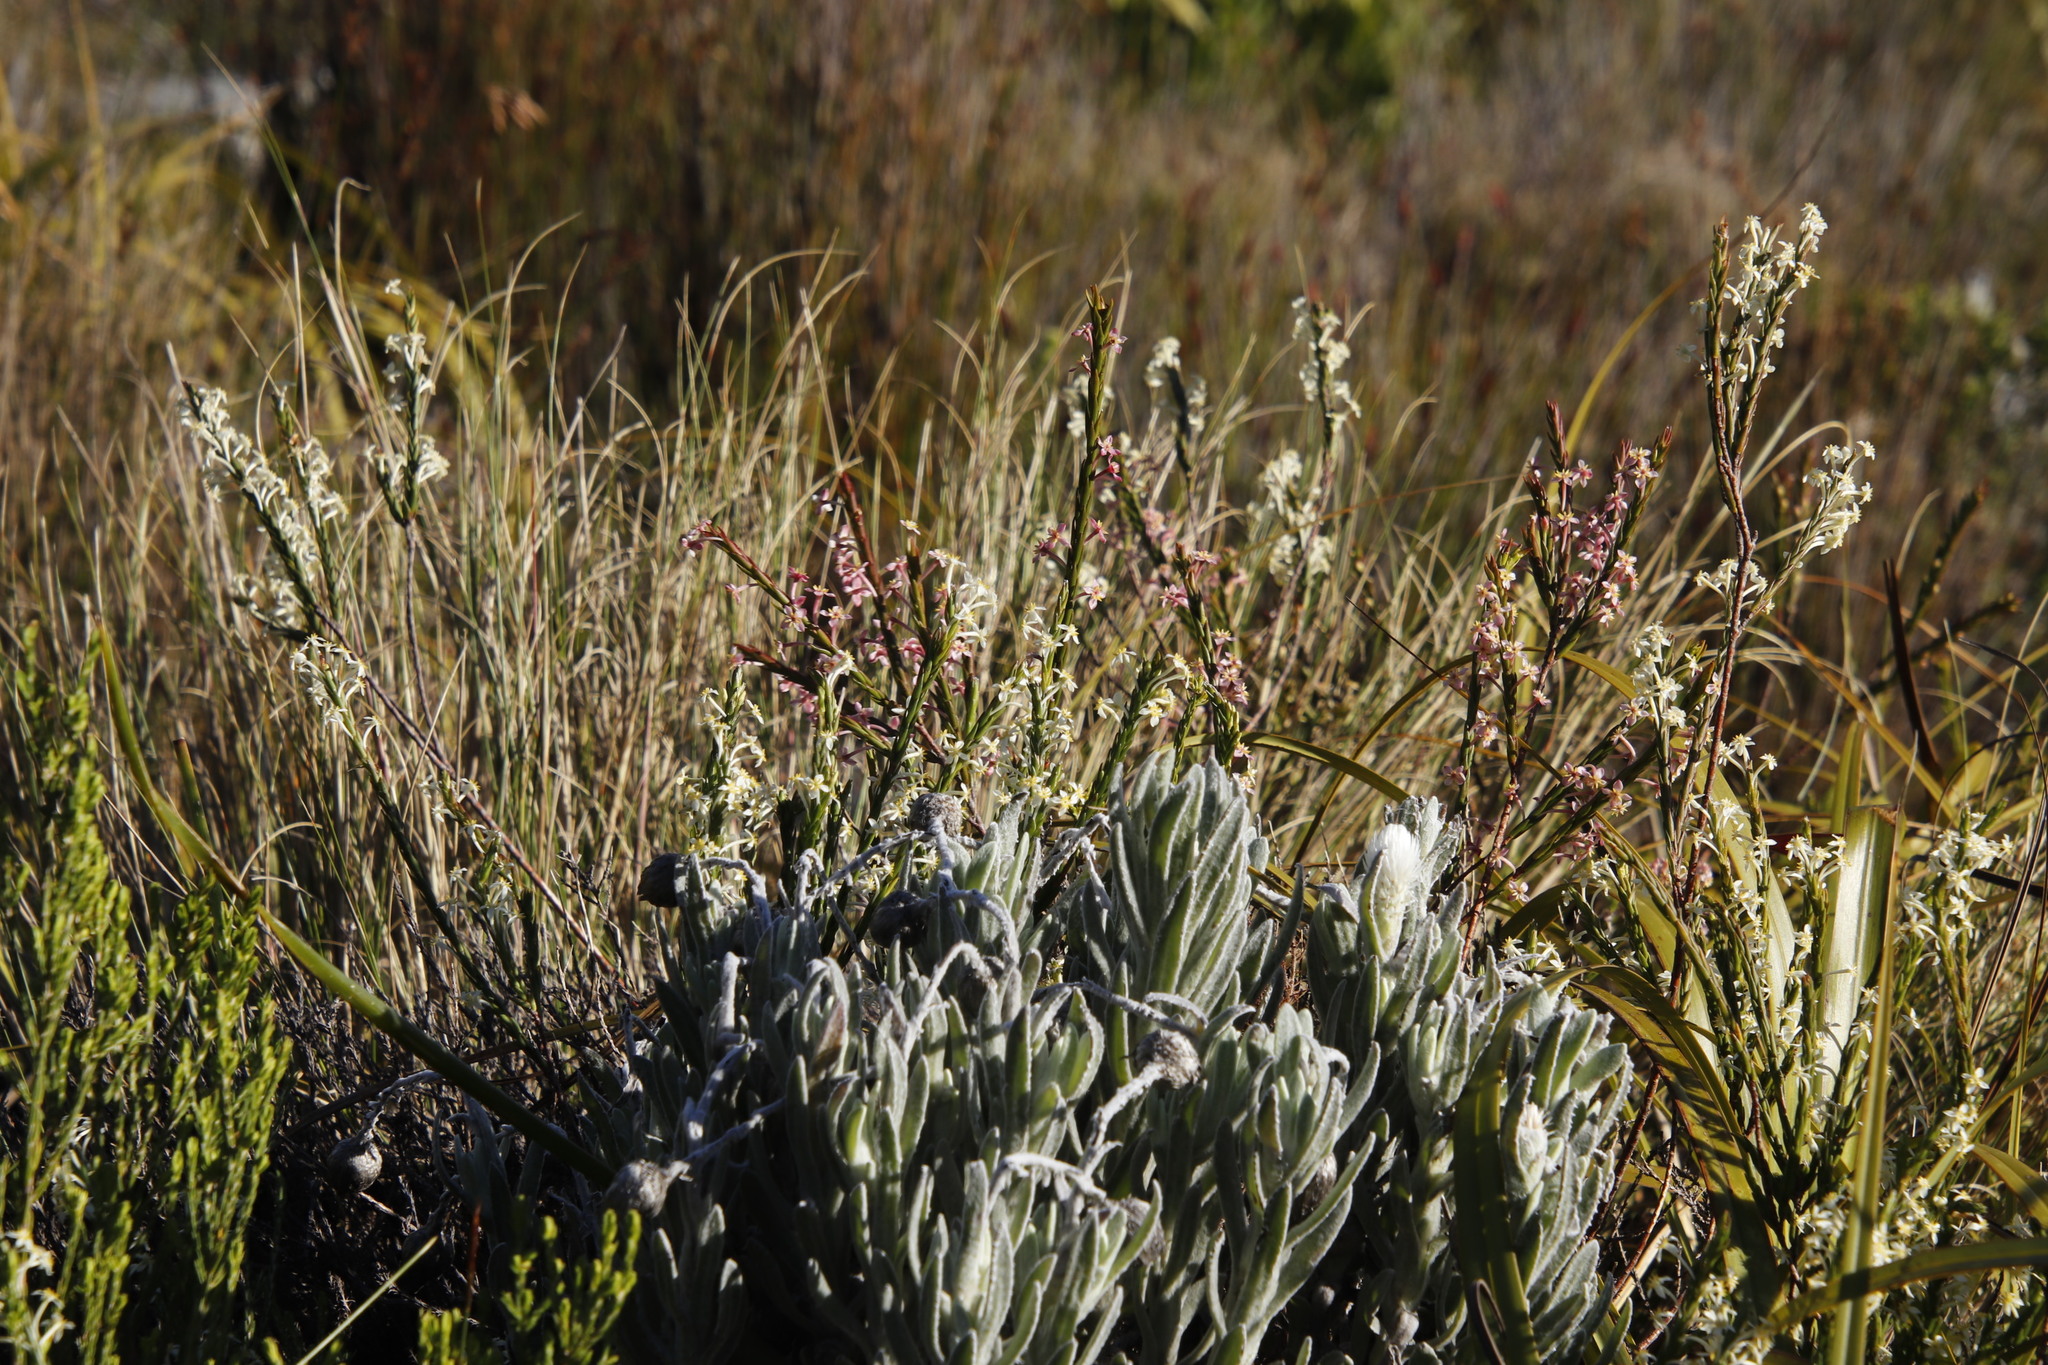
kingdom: Plantae
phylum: Tracheophyta
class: Magnoliopsida
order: Malvales
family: Thymelaeaceae
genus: Struthiola
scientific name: Struthiola ciliata
